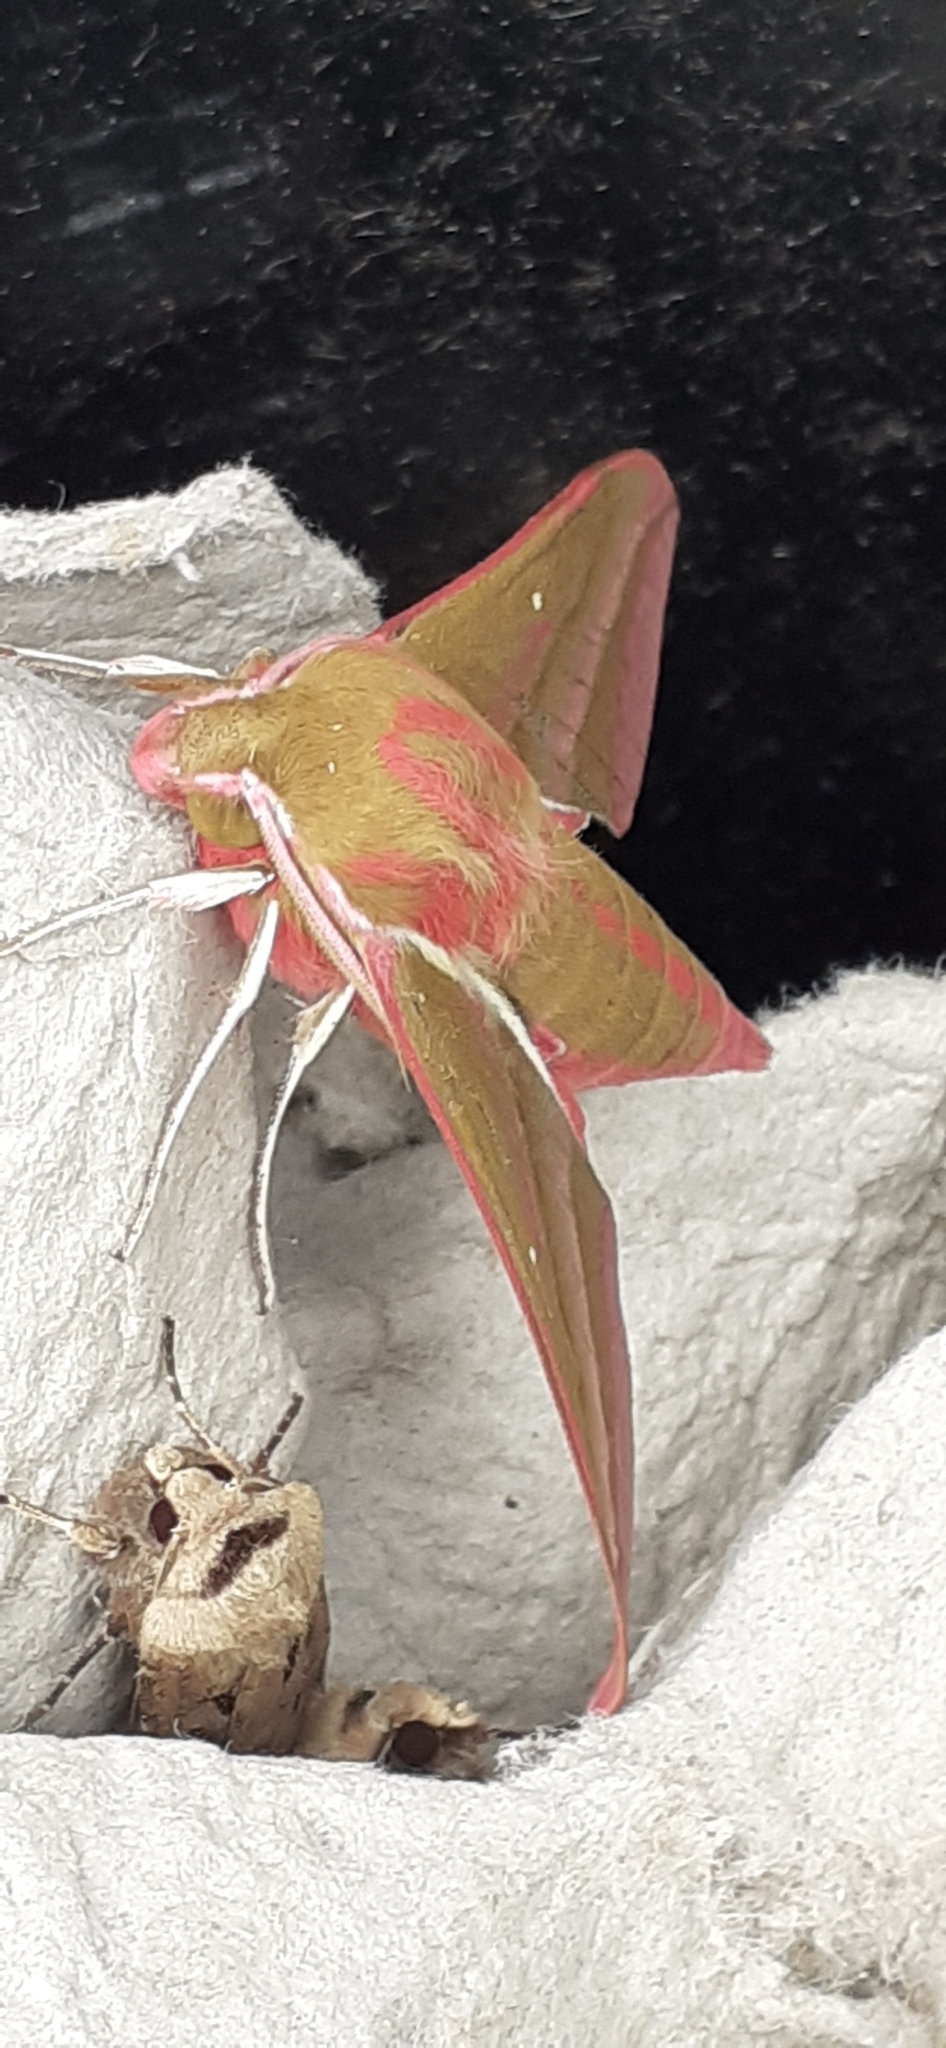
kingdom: Animalia
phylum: Arthropoda
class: Insecta
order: Lepidoptera
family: Sphingidae
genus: Deilephila
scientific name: Deilephila elpenor
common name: Elephant hawk-moth
